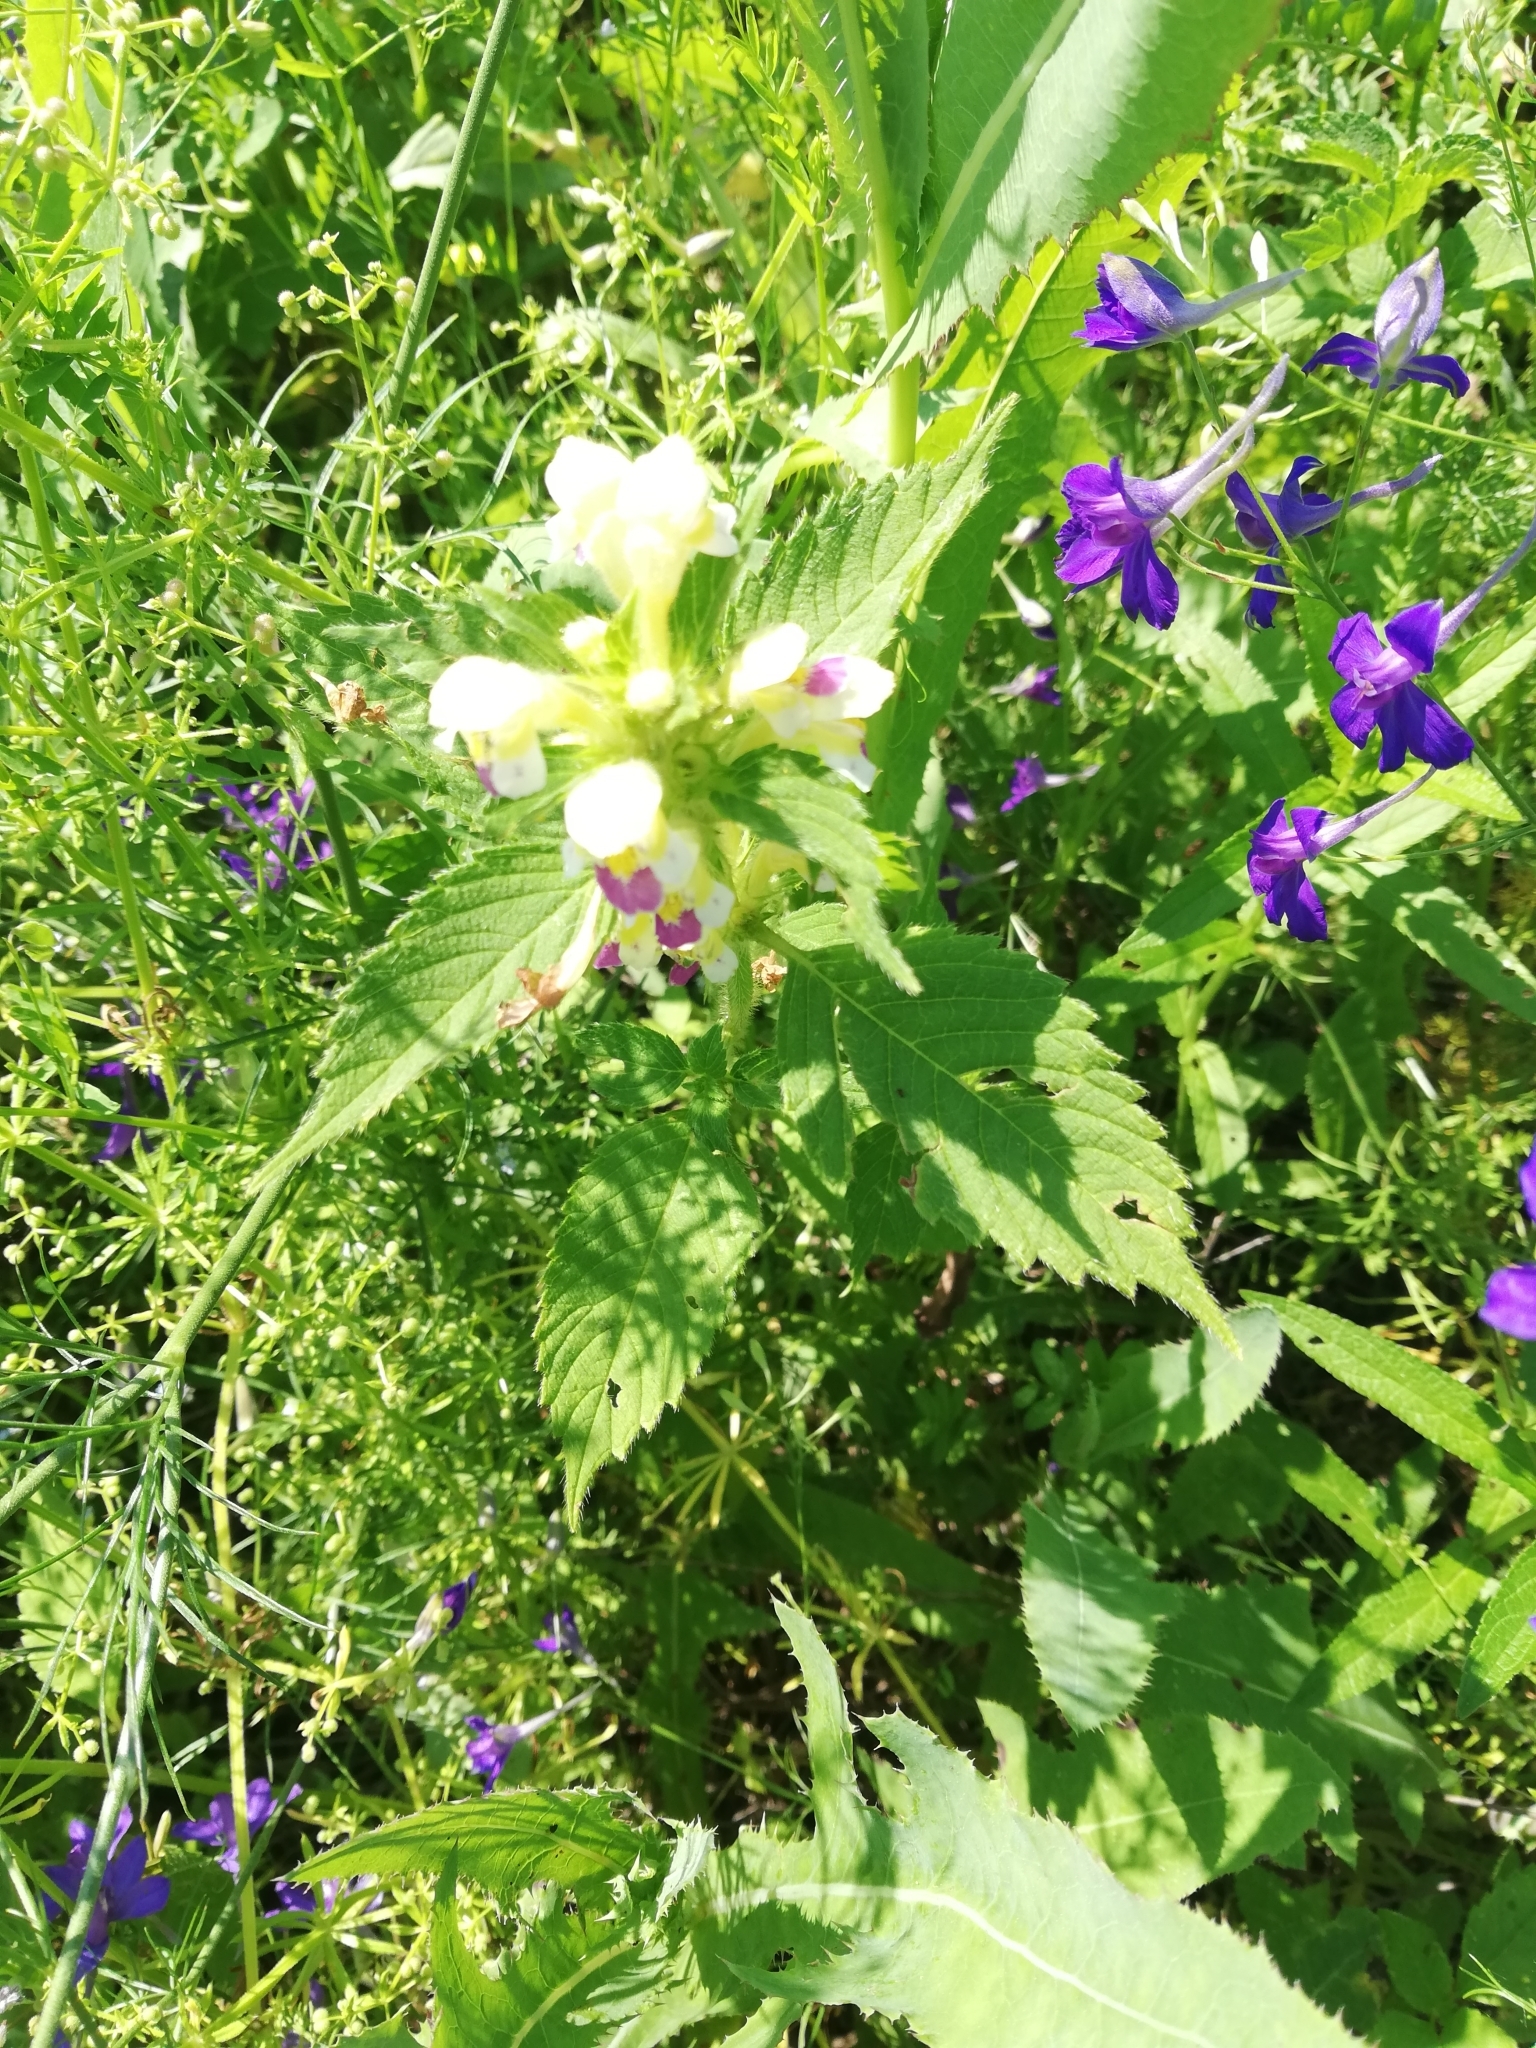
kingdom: Plantae
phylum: Tracheophyta
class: Magnoliopsida
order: Lamiales
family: Lamiaceae
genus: Galeopsis
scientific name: Galeopsis speciosa
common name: Large-flowered hemp-nettle
